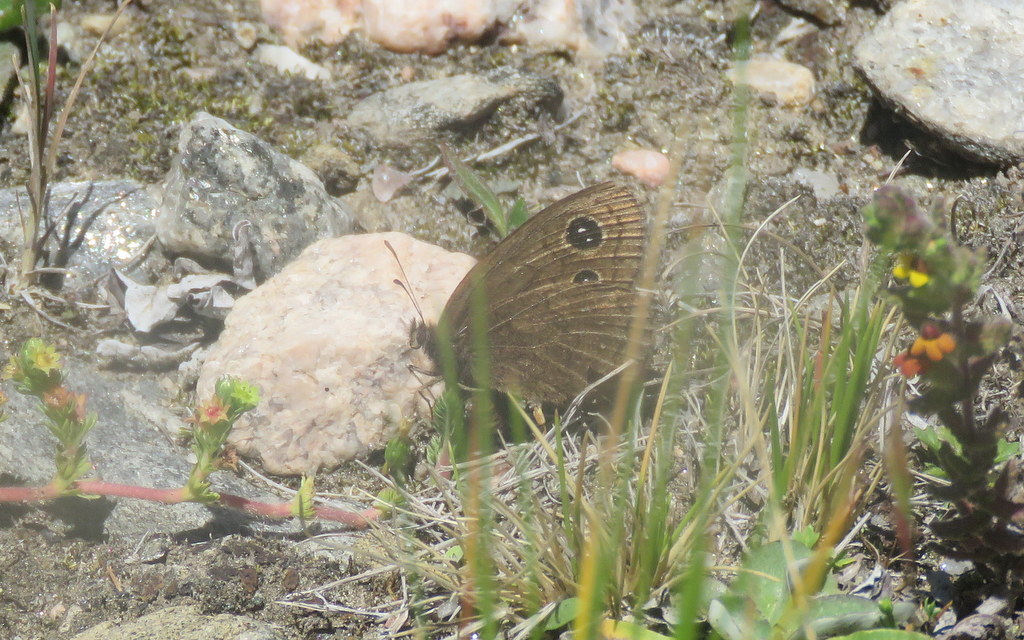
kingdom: Animalia
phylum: Arthropoda
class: Insecta
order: Lepidoptera
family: Nymphalidae
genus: Pampasatyrus
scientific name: Pampasatyrus nilesi
